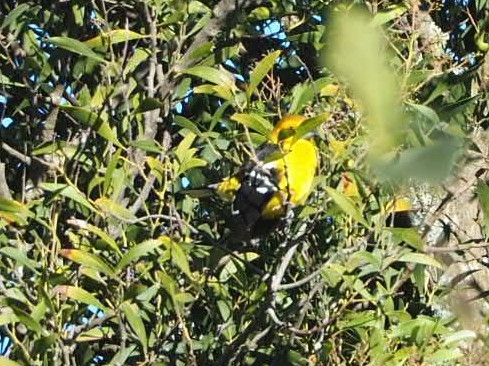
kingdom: Animalia
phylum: Chordata
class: Aves
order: Passeriformes
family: Cardinalidae
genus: Pheucticus
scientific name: Pheucticus chrysogaster
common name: Golden grosbeak
